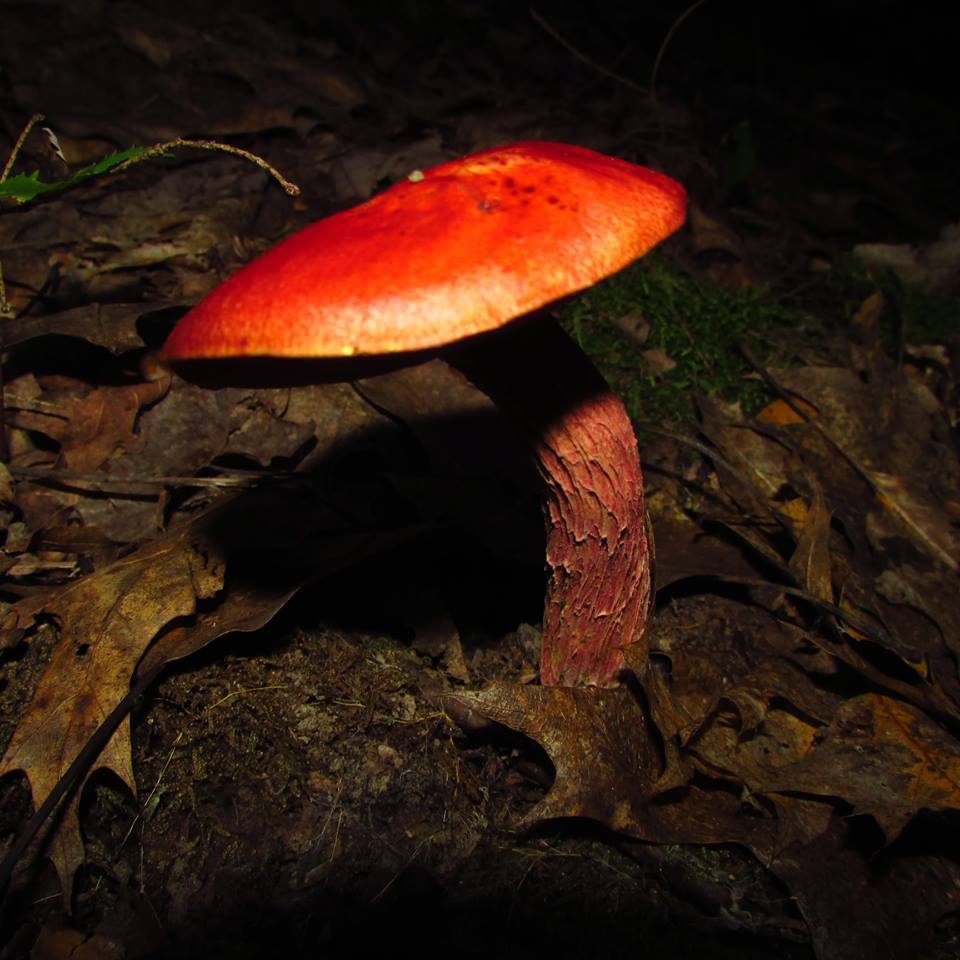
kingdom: Fungi
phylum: Basidiomycota
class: Agaricomycetes
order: Boletales
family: Boletaceae
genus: Butyriboletus
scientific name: Butyriboletus frostii
